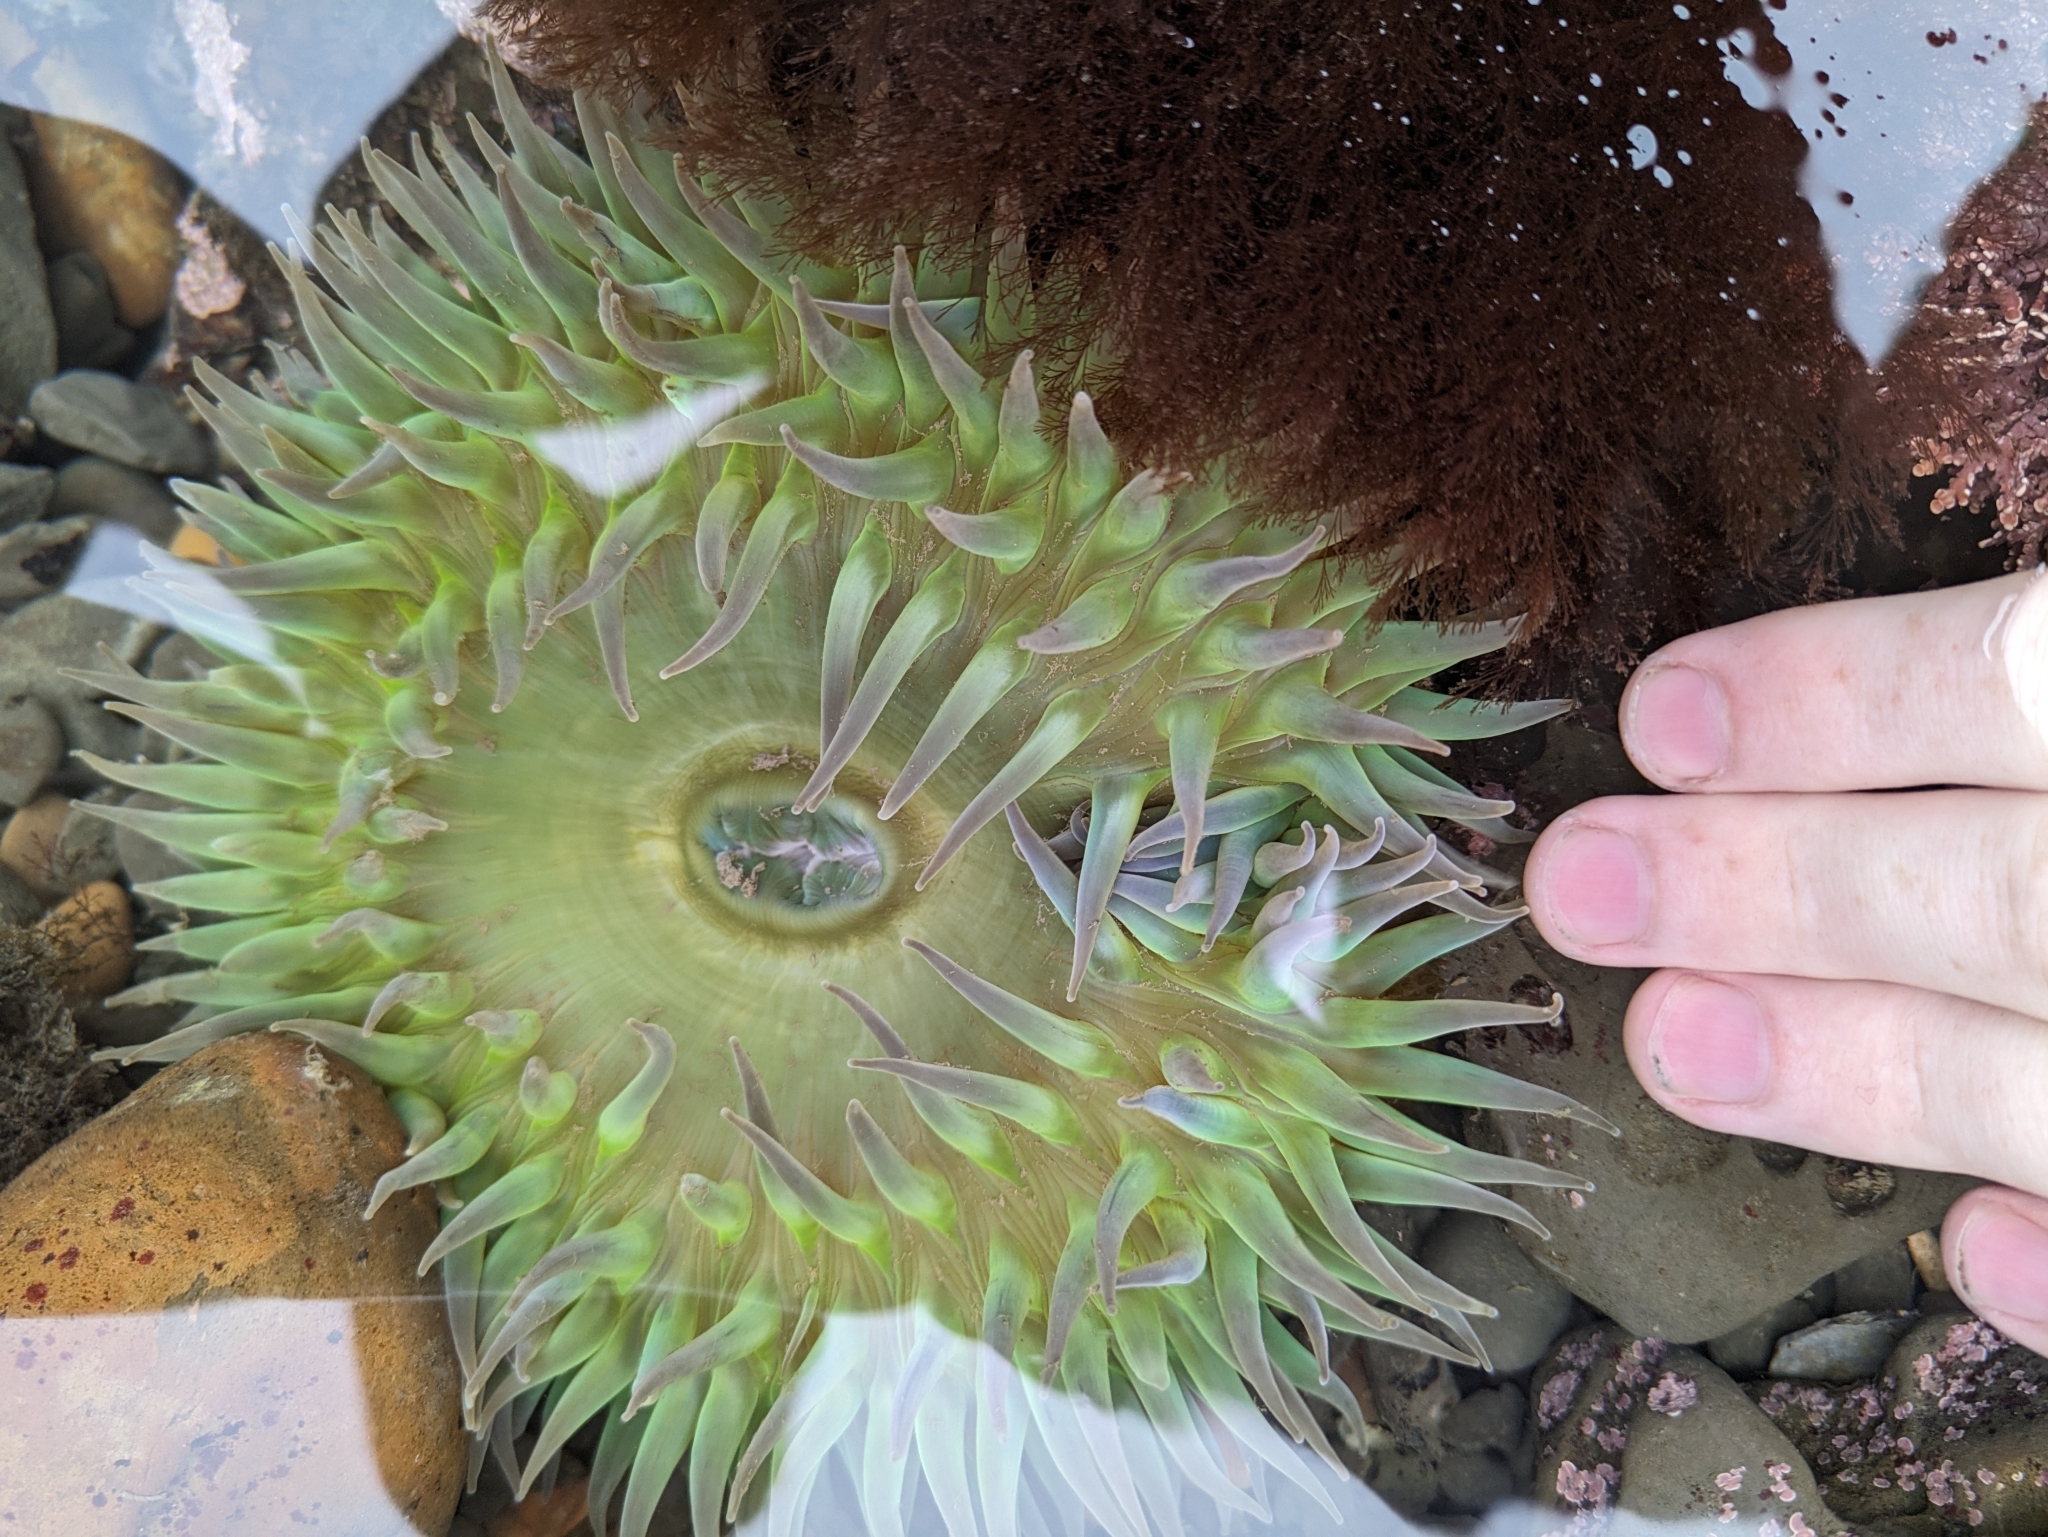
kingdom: Animalia
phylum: Cnidaria
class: Anthozoa
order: Actiniaria
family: Actiniidae
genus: Anthopleura
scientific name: Anthopleura xanthogrammica
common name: Giant green anemone
